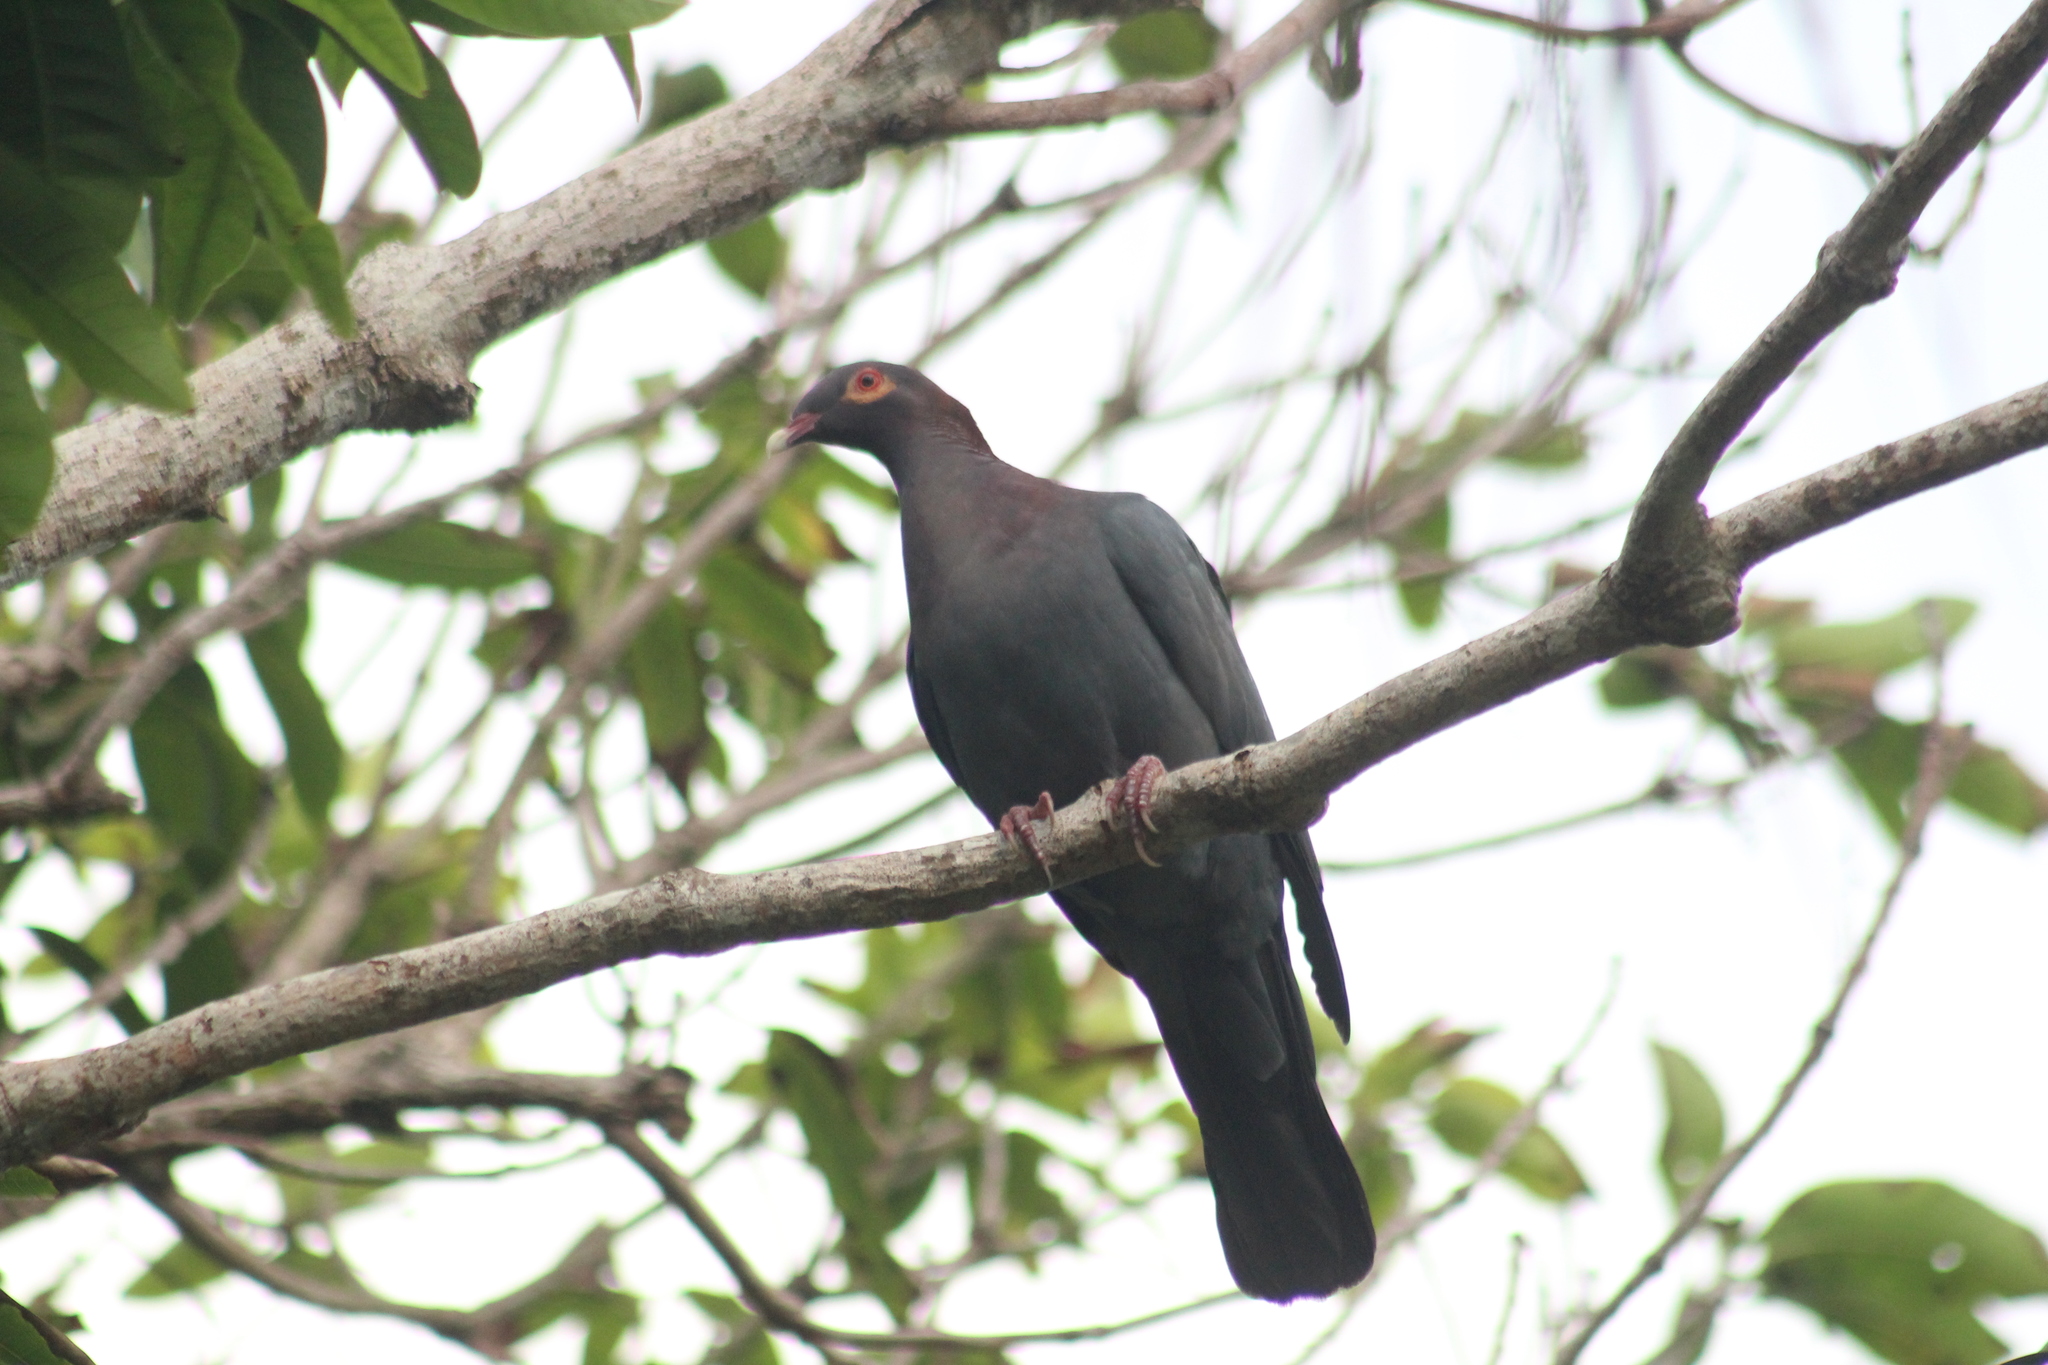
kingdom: Animalia
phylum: Chordata
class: Aves
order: Columbiformes
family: Columbidae
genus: Patagioenas
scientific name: Patagioenas squamosa
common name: Scaly-naped pigeon
